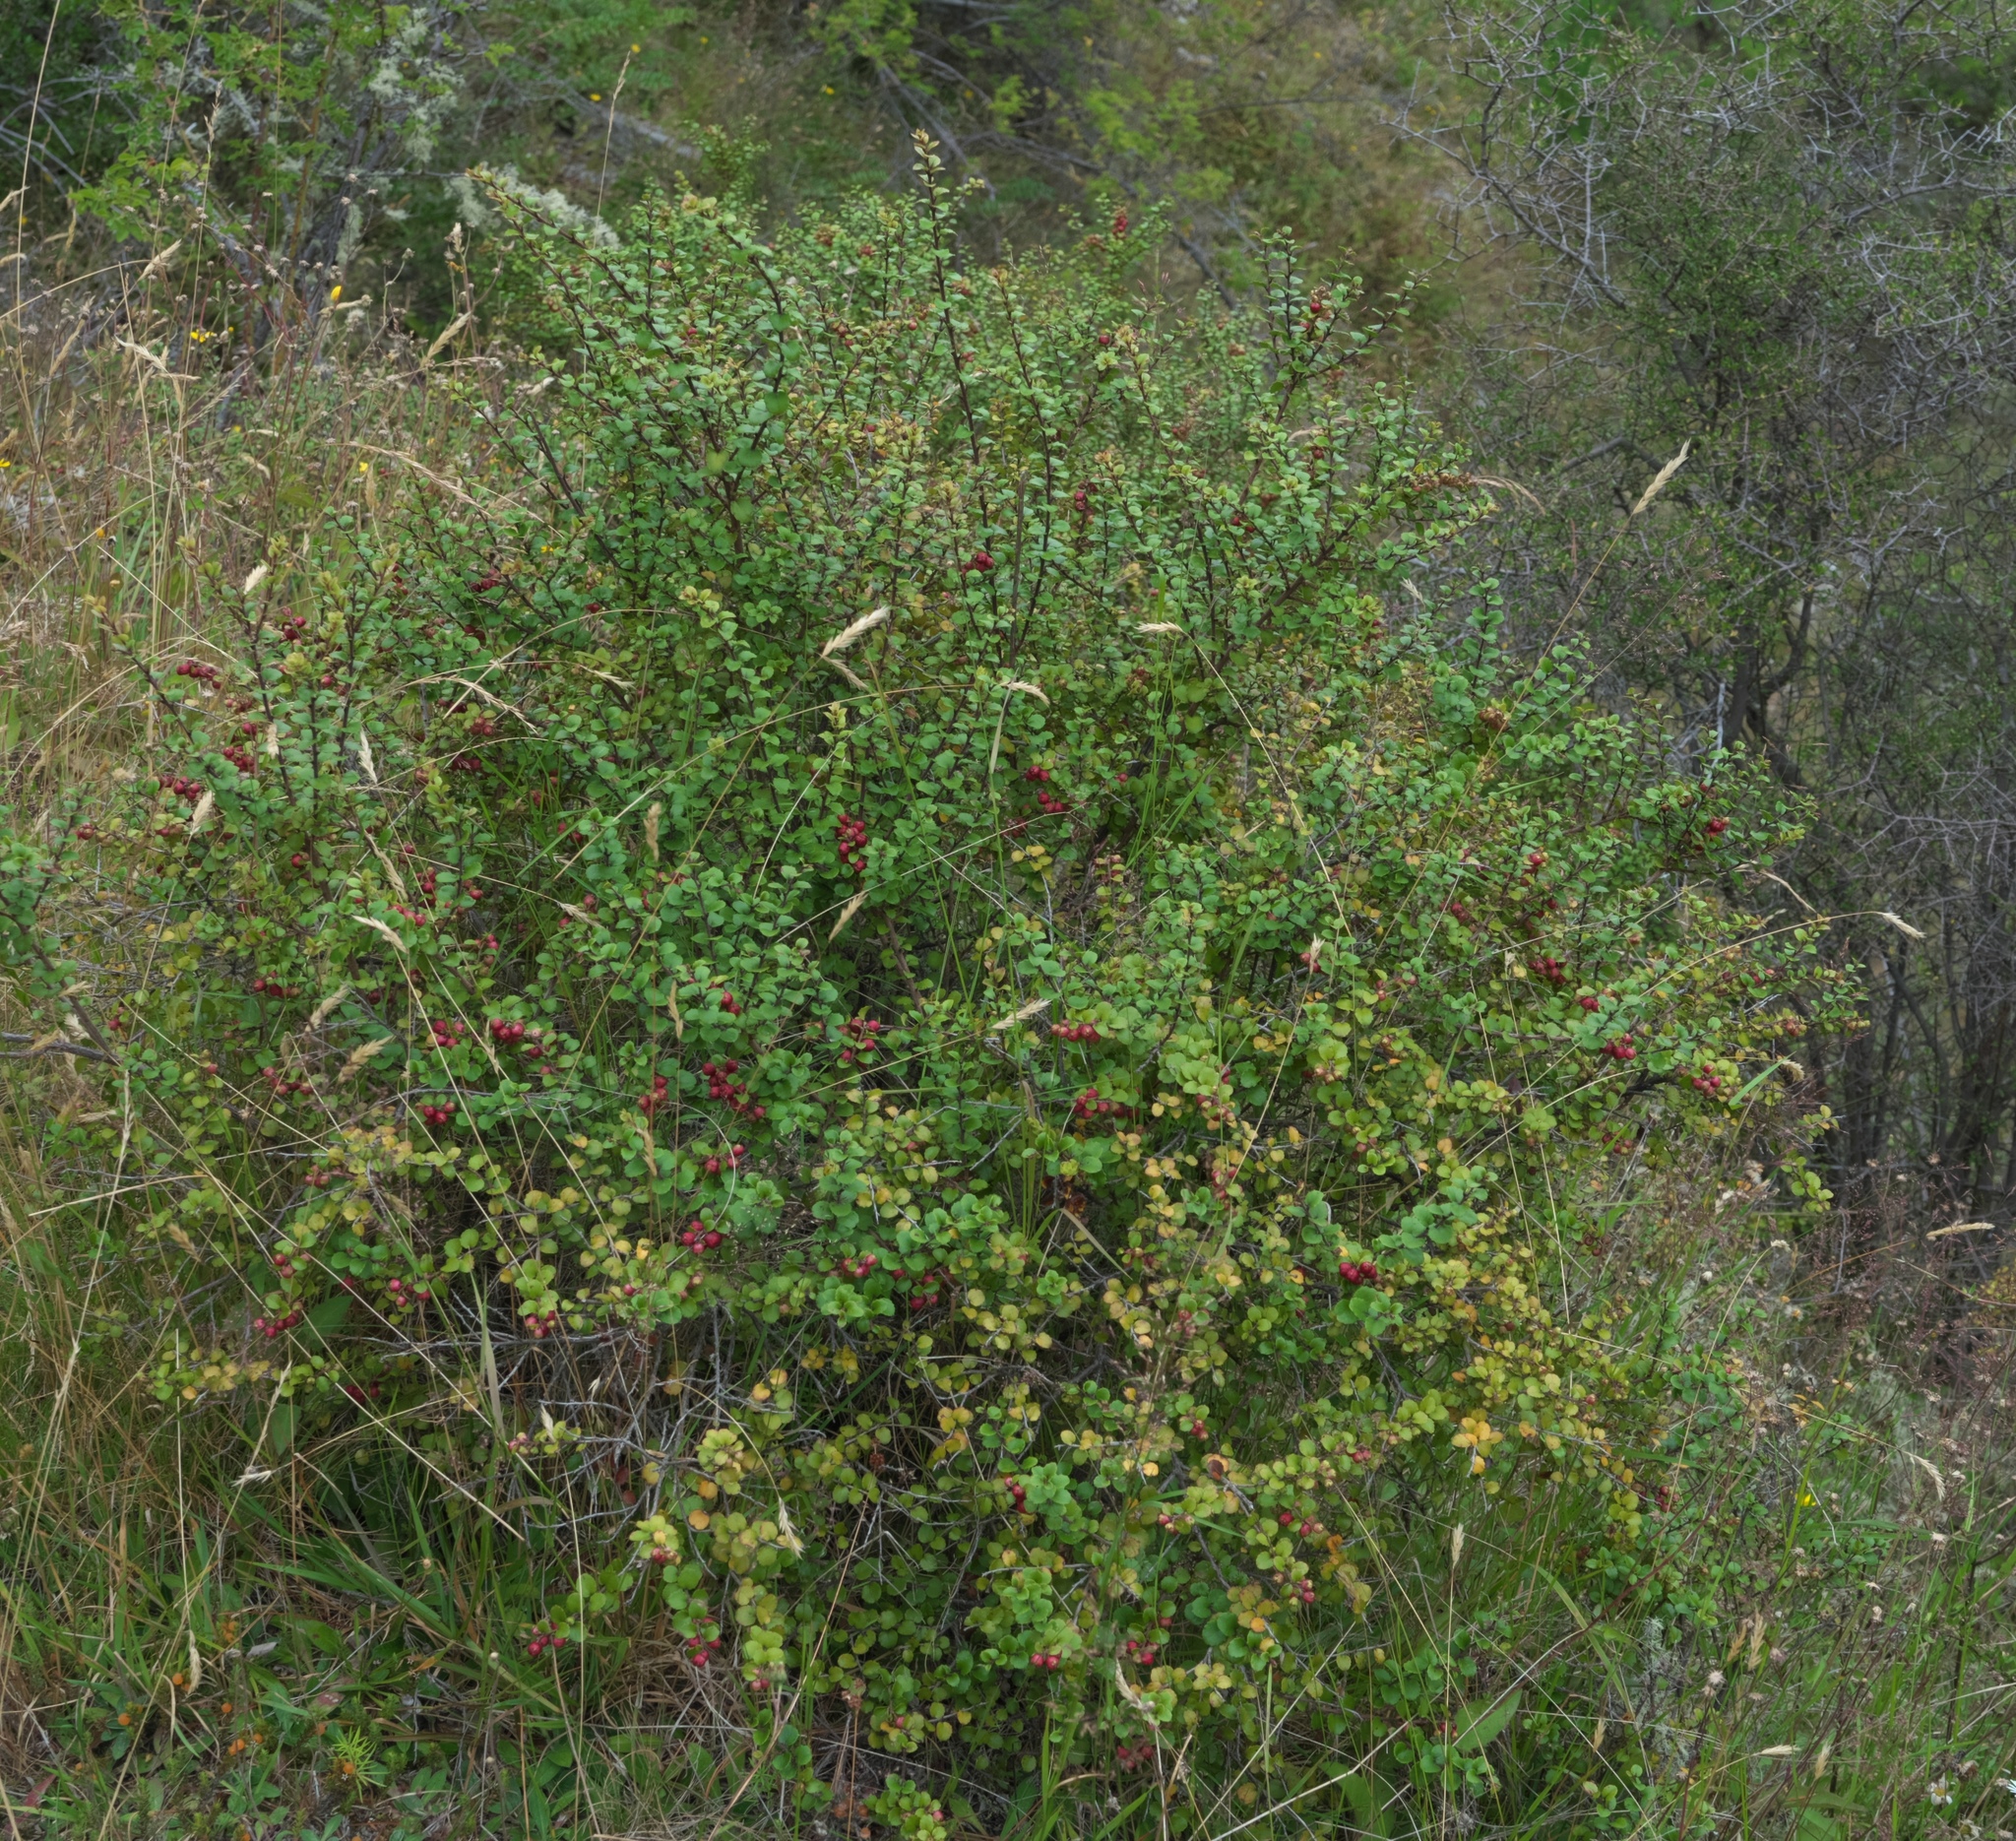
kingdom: Plantae
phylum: Tracheophyta
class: Magnoliopsida
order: Ericales
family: Ericaceae
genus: Gaultheria
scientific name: Gaultheria antipoda
